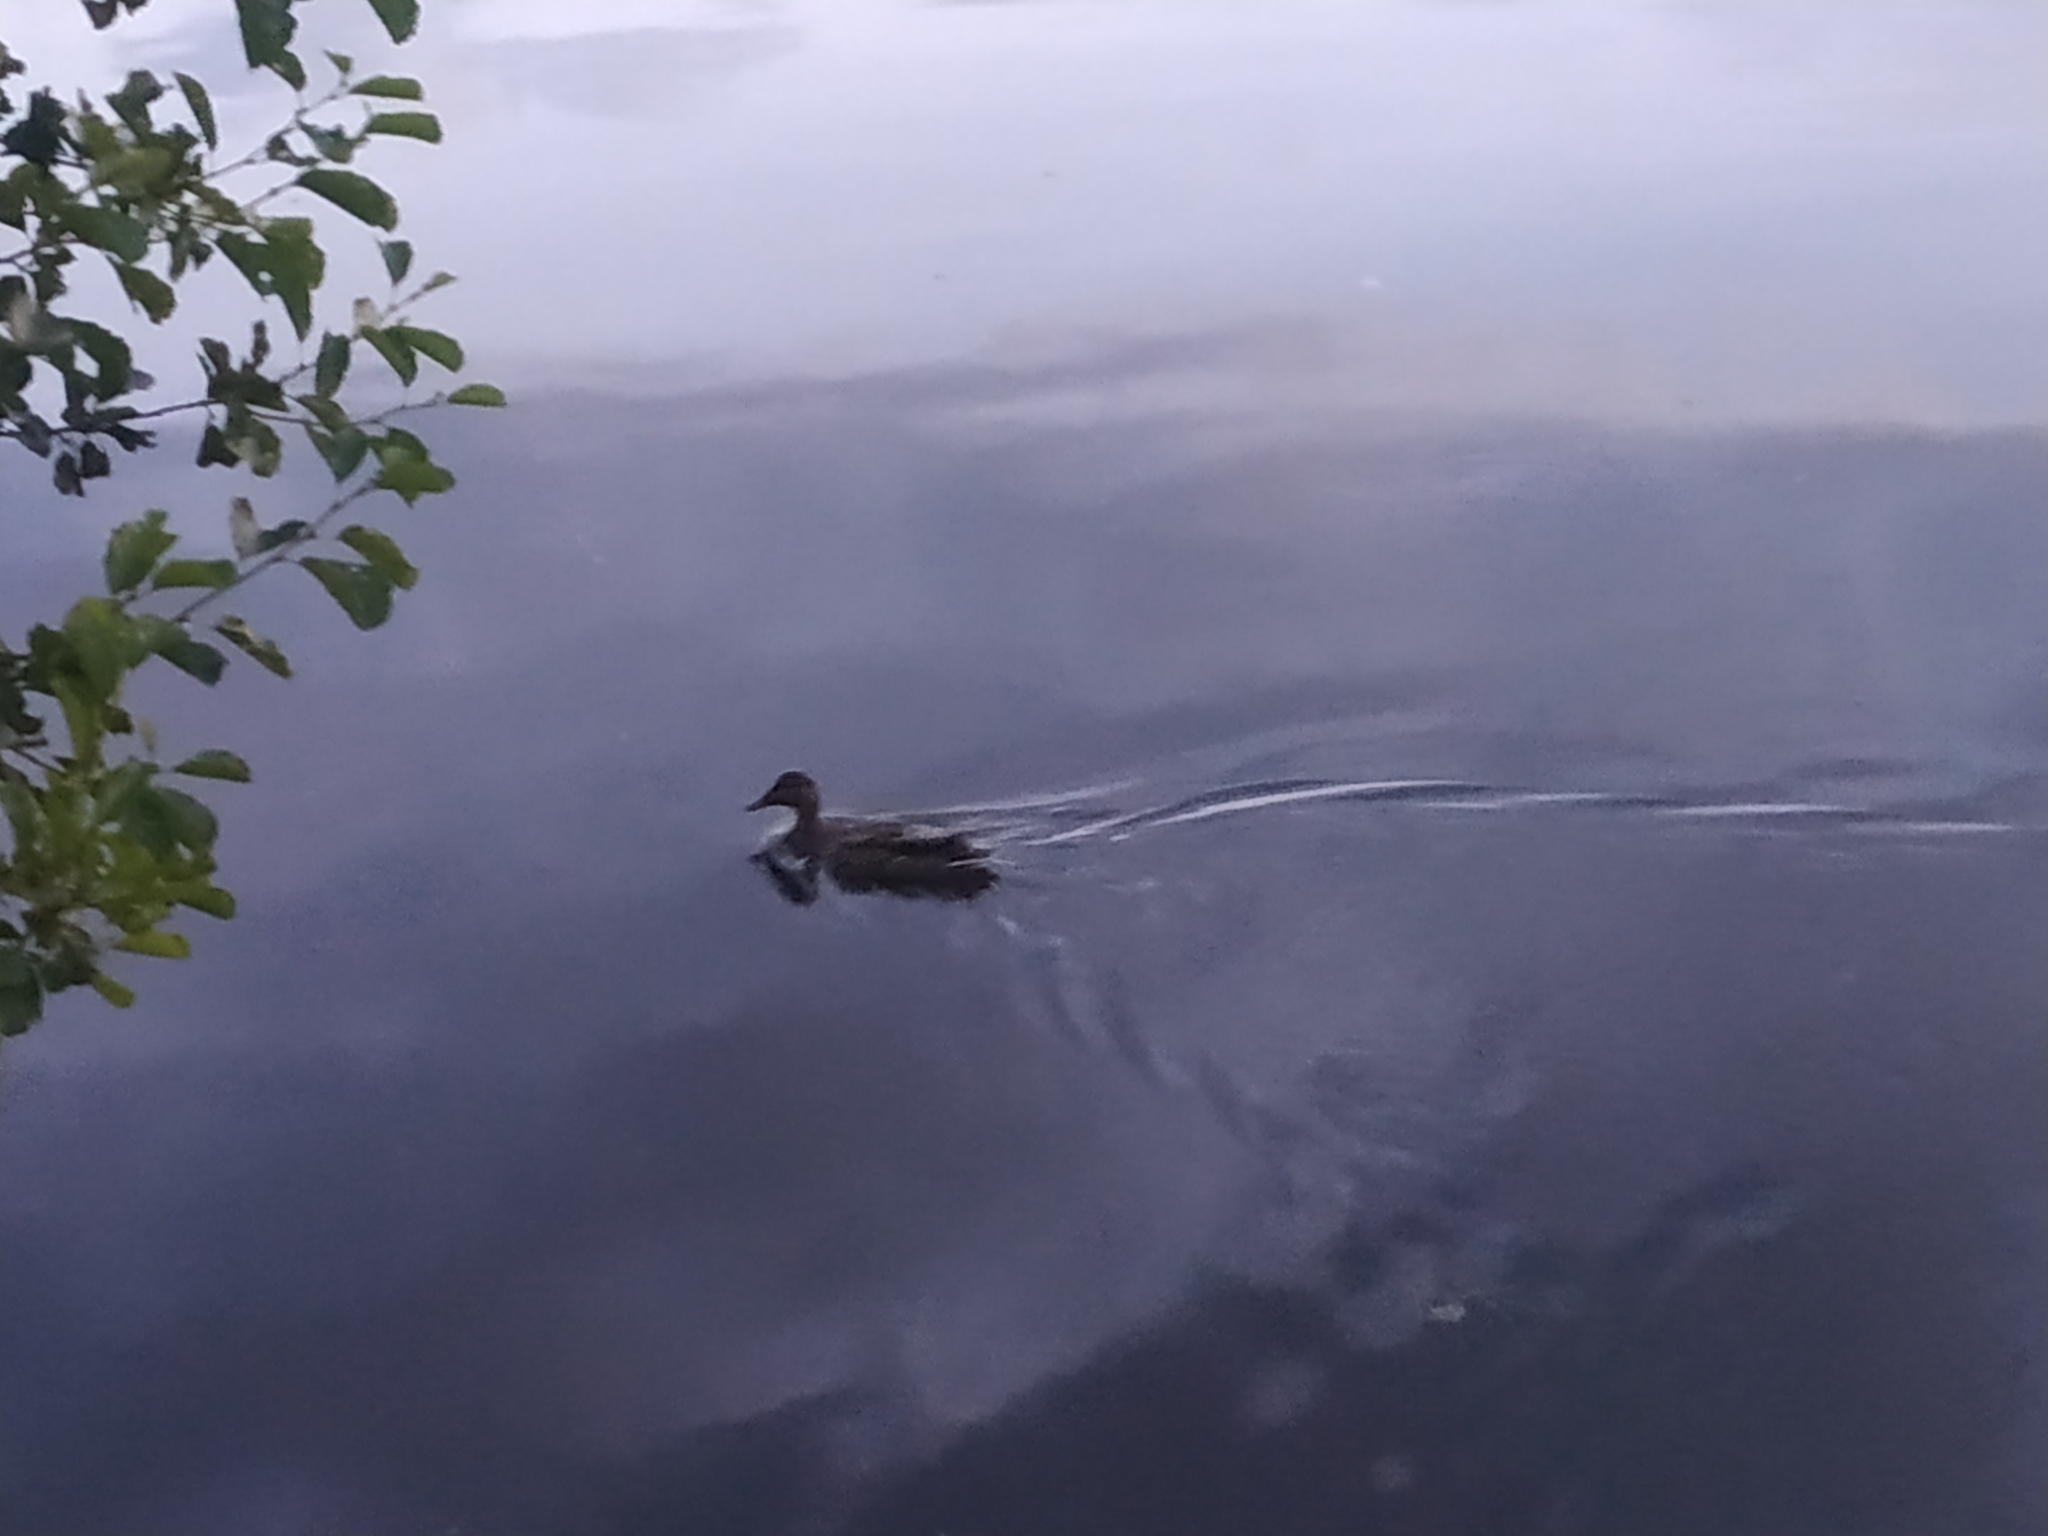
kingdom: Animalia
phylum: Chordata
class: Aves
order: Anseriformes
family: Anatidae
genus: Anas
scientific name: Anas platyrhynchos
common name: Mallard
